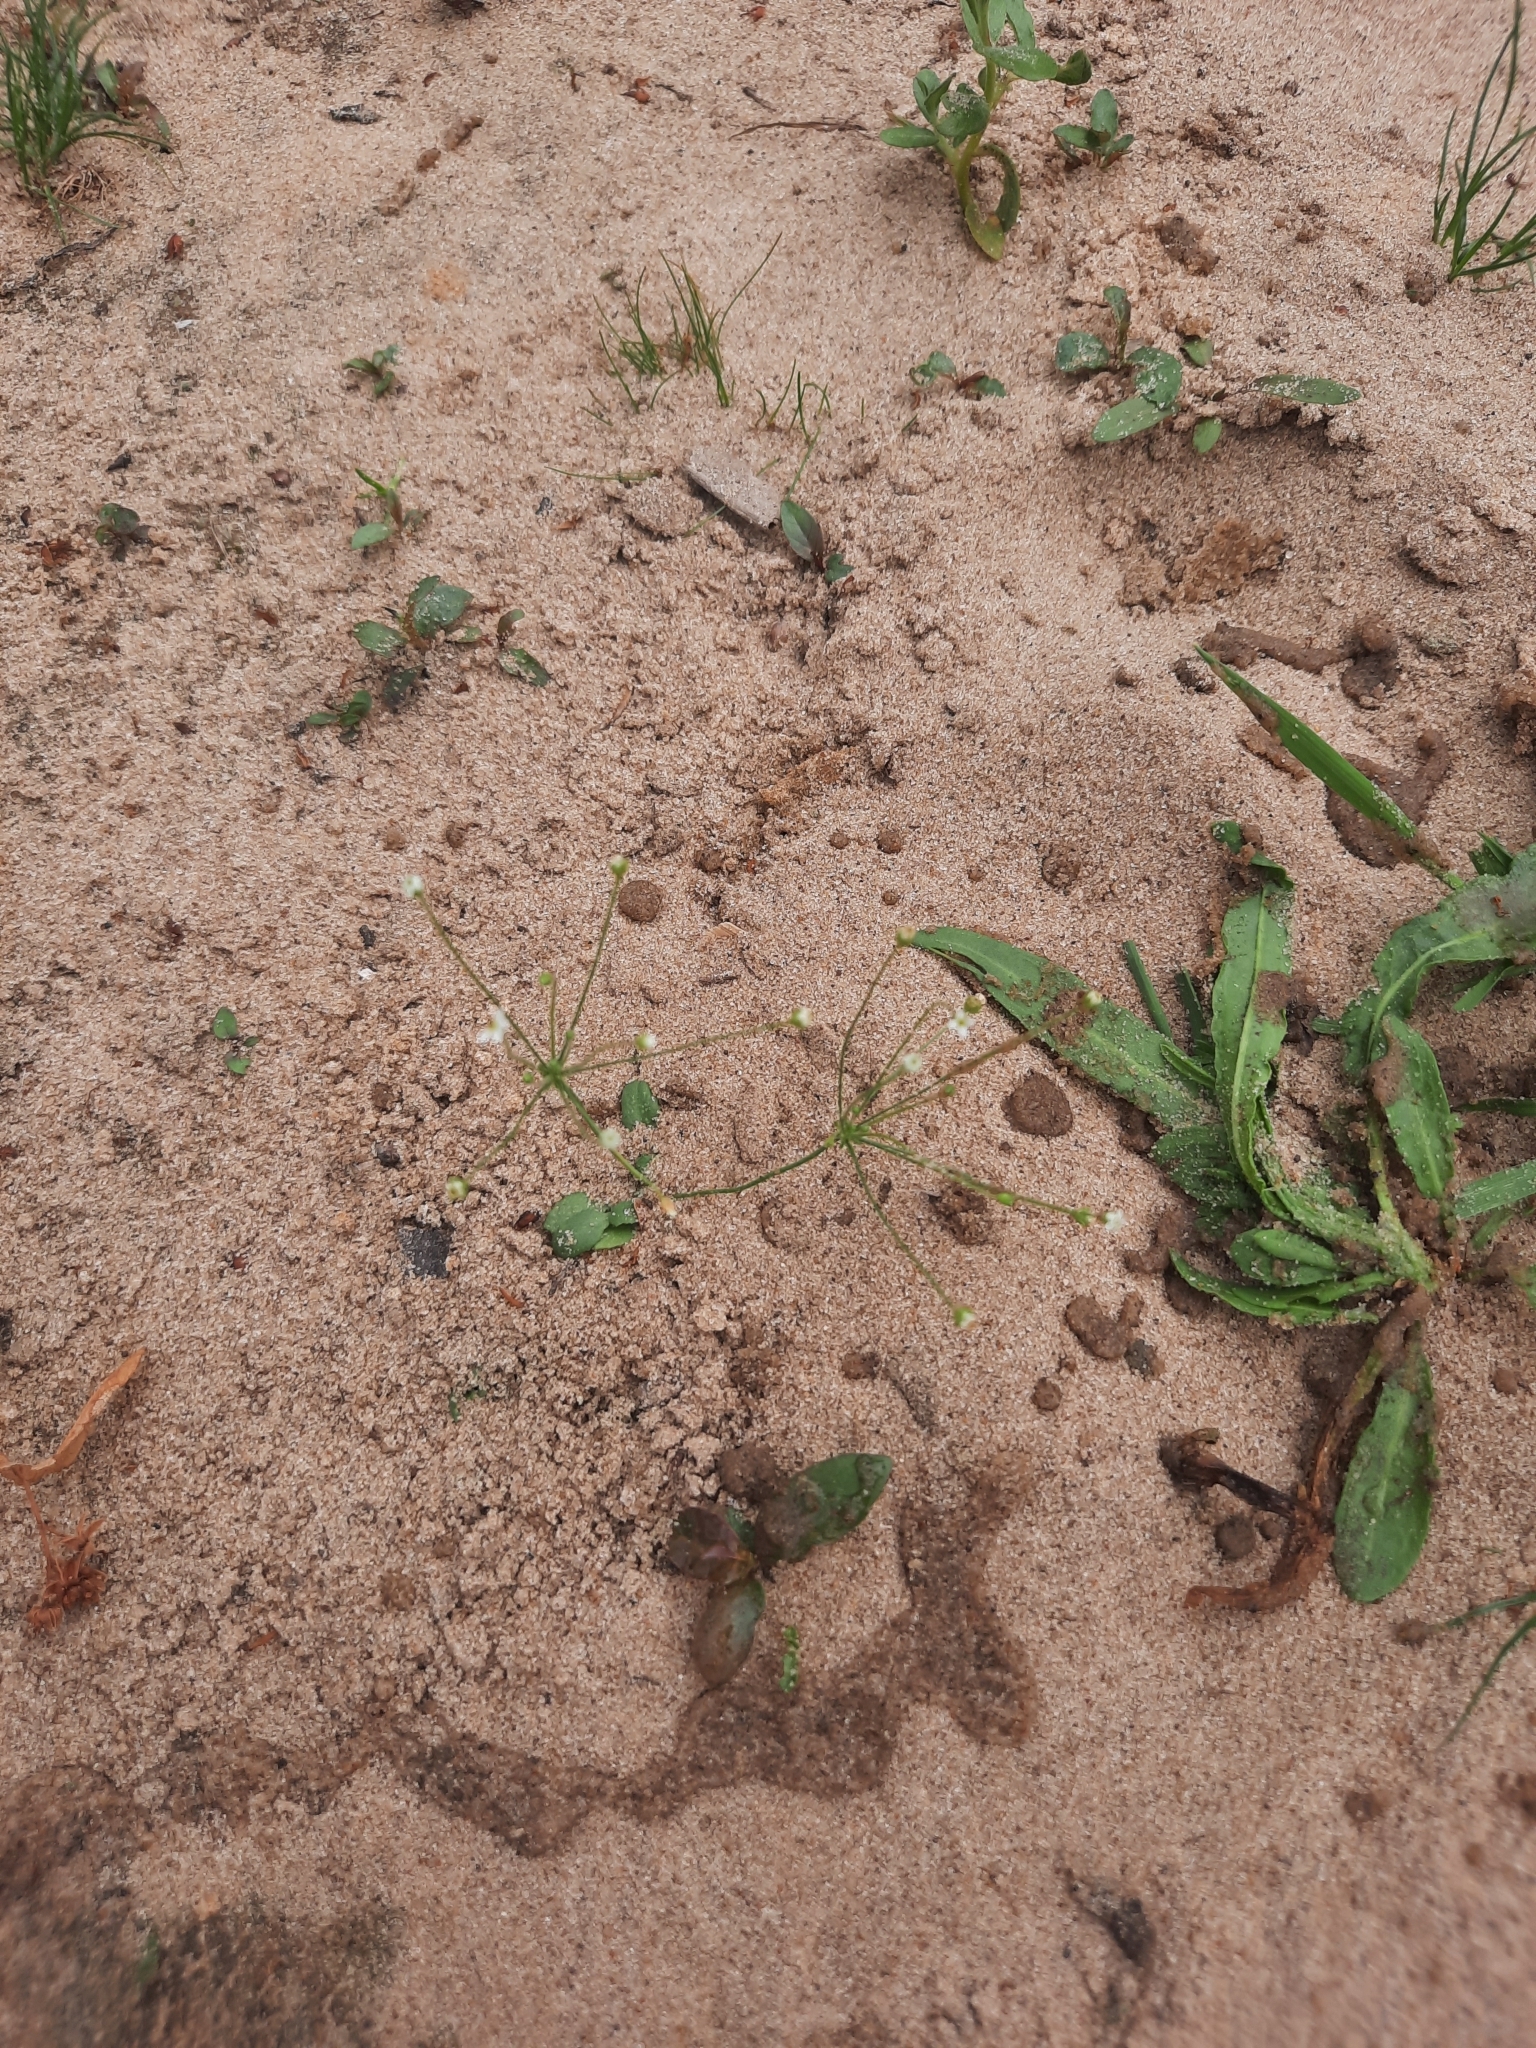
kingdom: Plantae
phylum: Tracheophyta
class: Magnoliopsida
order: Ericales
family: Primulaceae
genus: Androsace
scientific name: Androsace filiformis
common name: Filiform rock jasmine
